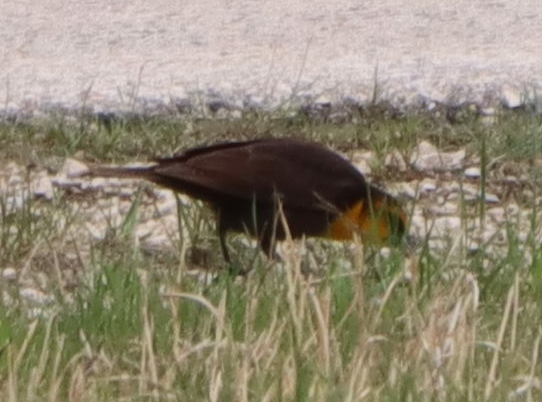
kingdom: Animalia
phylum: Chordata
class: Aves
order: Passeriformes
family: Icteridae
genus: Xanthocephalus
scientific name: Xanthocephalus xanthocephalus
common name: Yellow-headed blackbird
